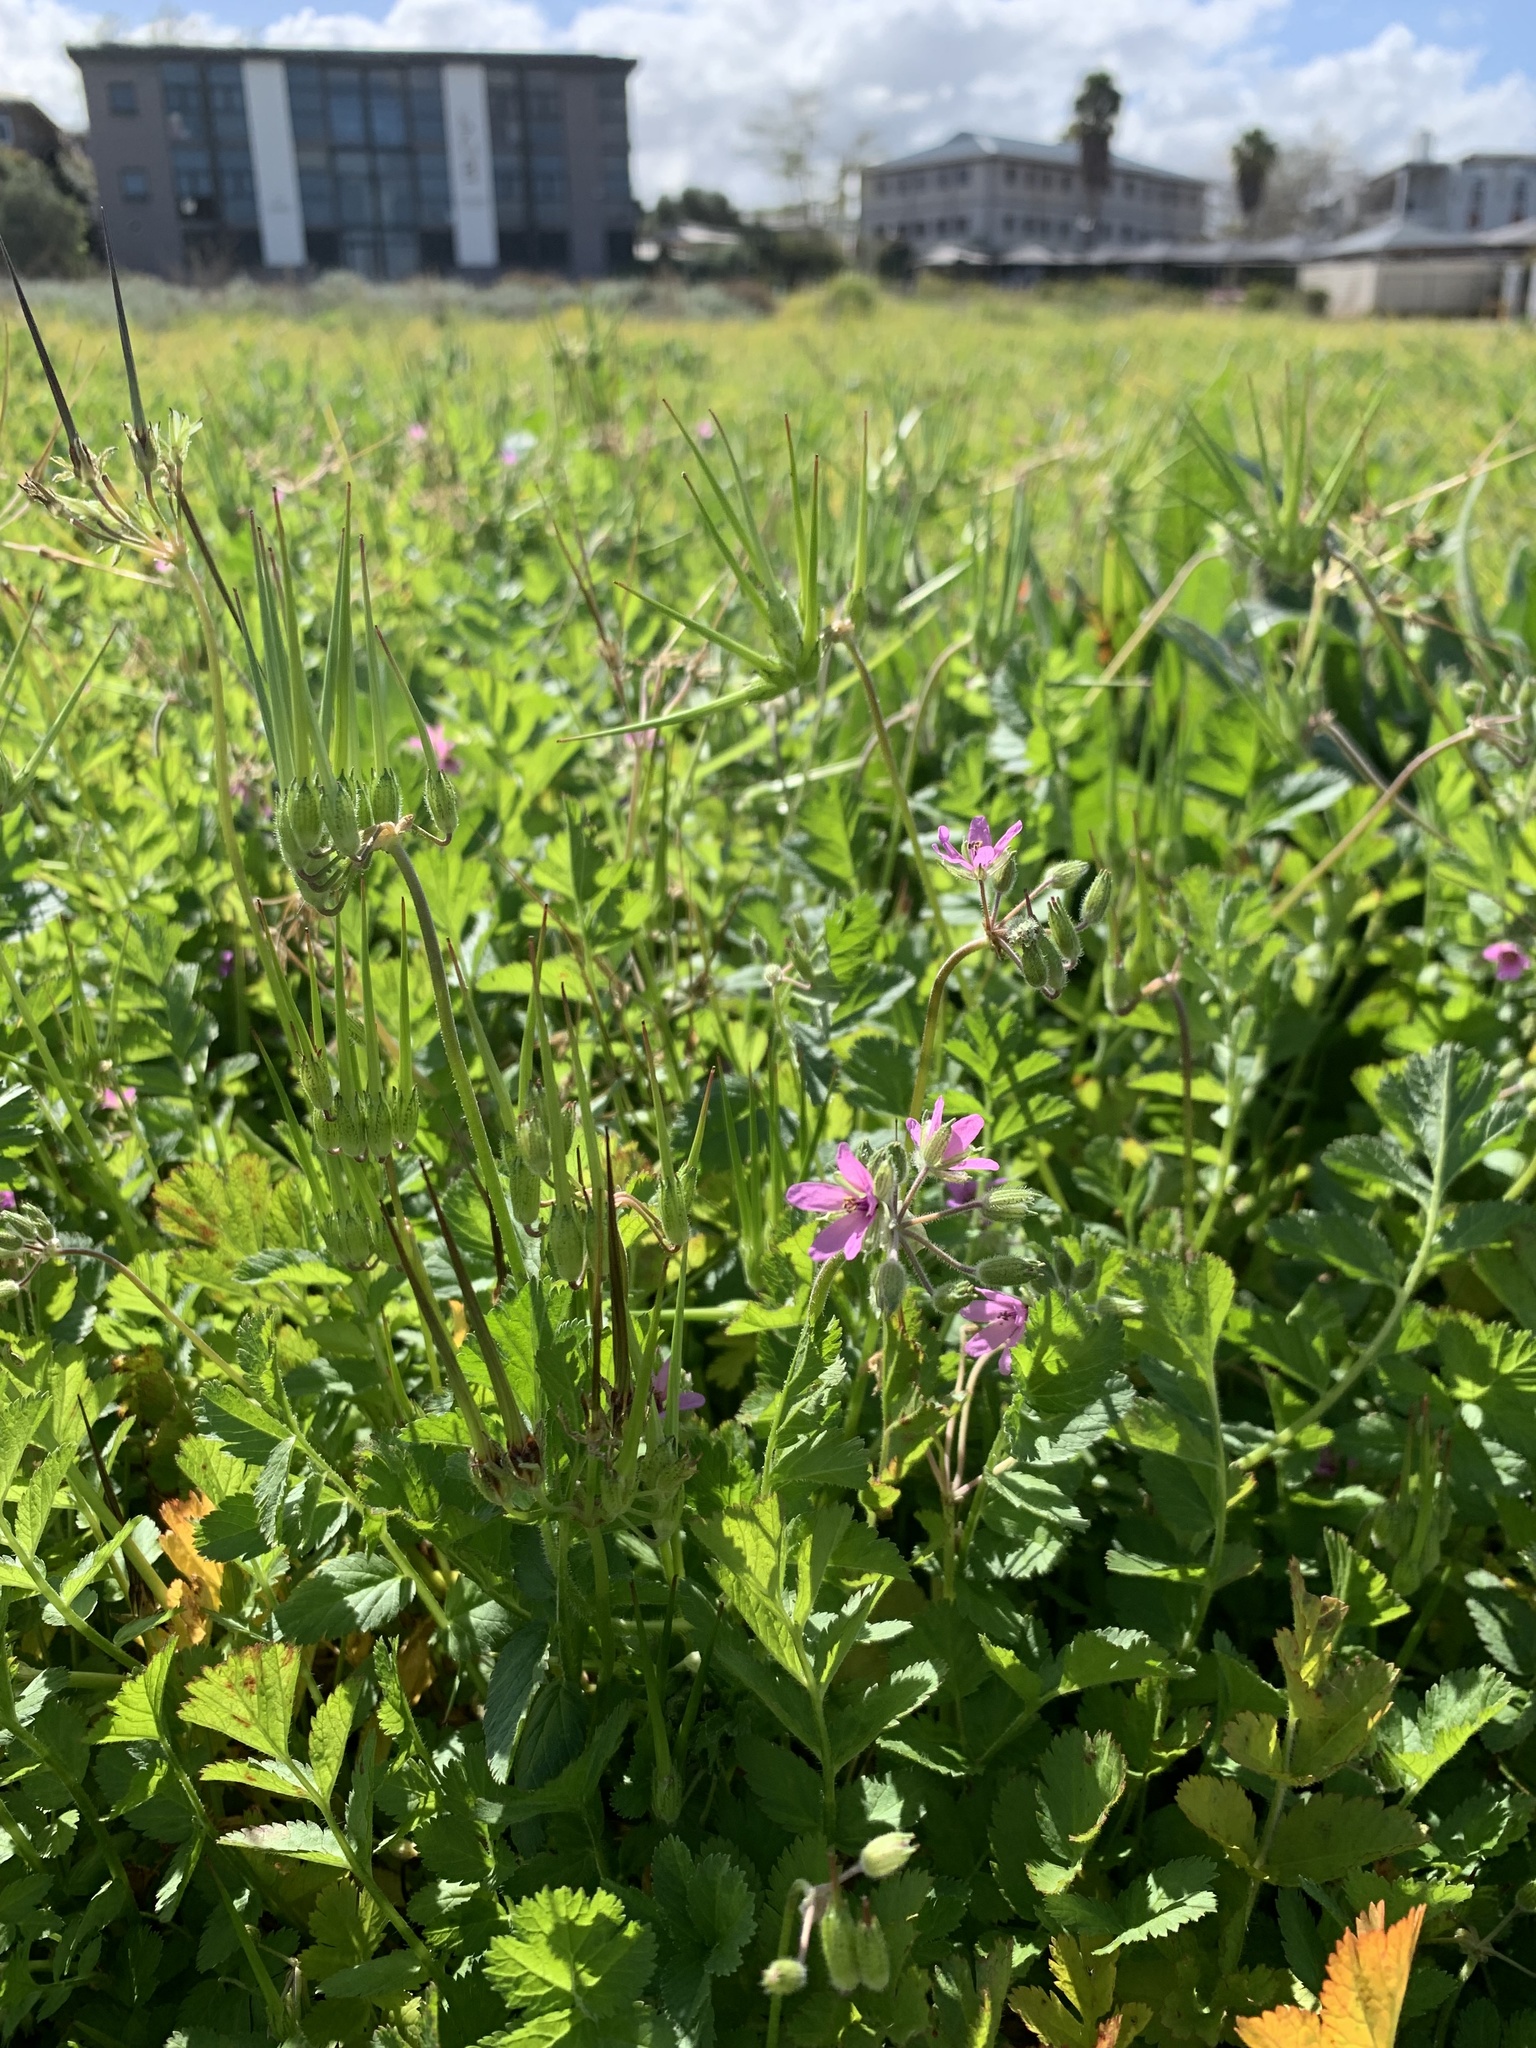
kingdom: Plantae
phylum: Tracheophyta
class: Magnoliopsida
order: Geraniales
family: Geraniaceae
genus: Erodium
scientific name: Erodium moschatum
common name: Musk stork's-bill
